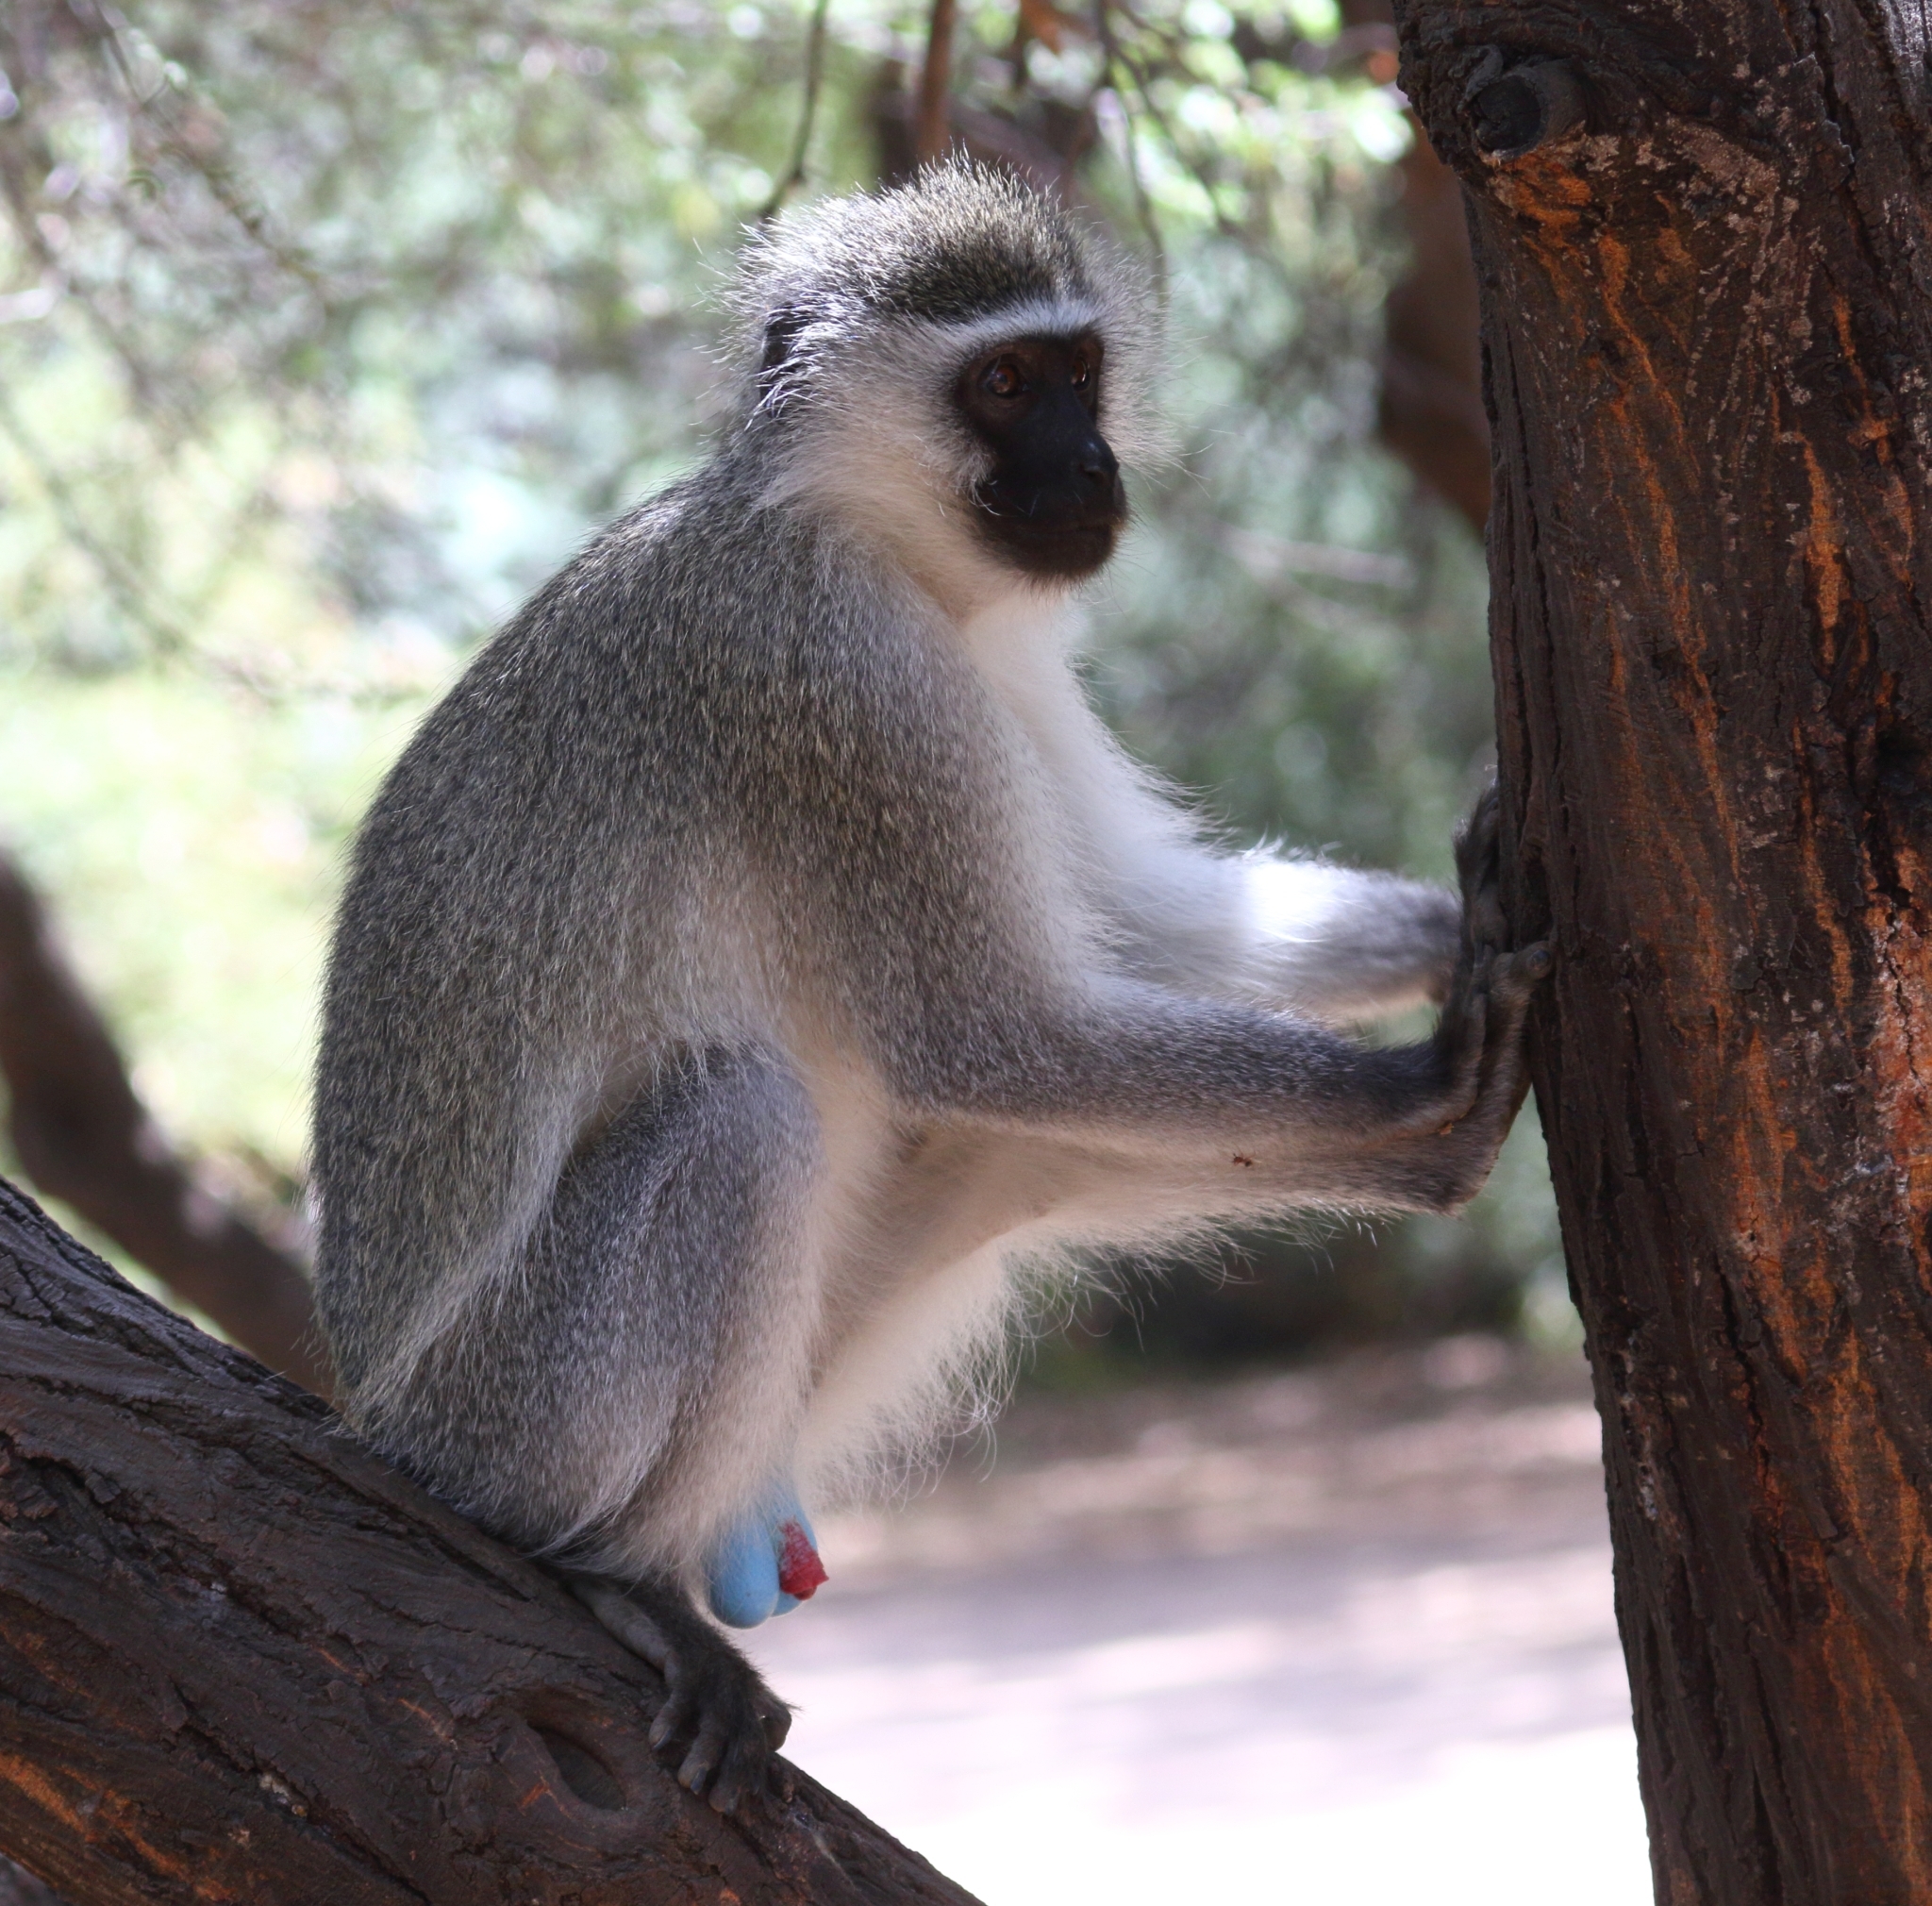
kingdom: Animalia
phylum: Chordata
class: Mammalia
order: Primates
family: Cercopithecidae
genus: Chlorocebus
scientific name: Chlorocebus pygerythrus
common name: Vervet monkey
